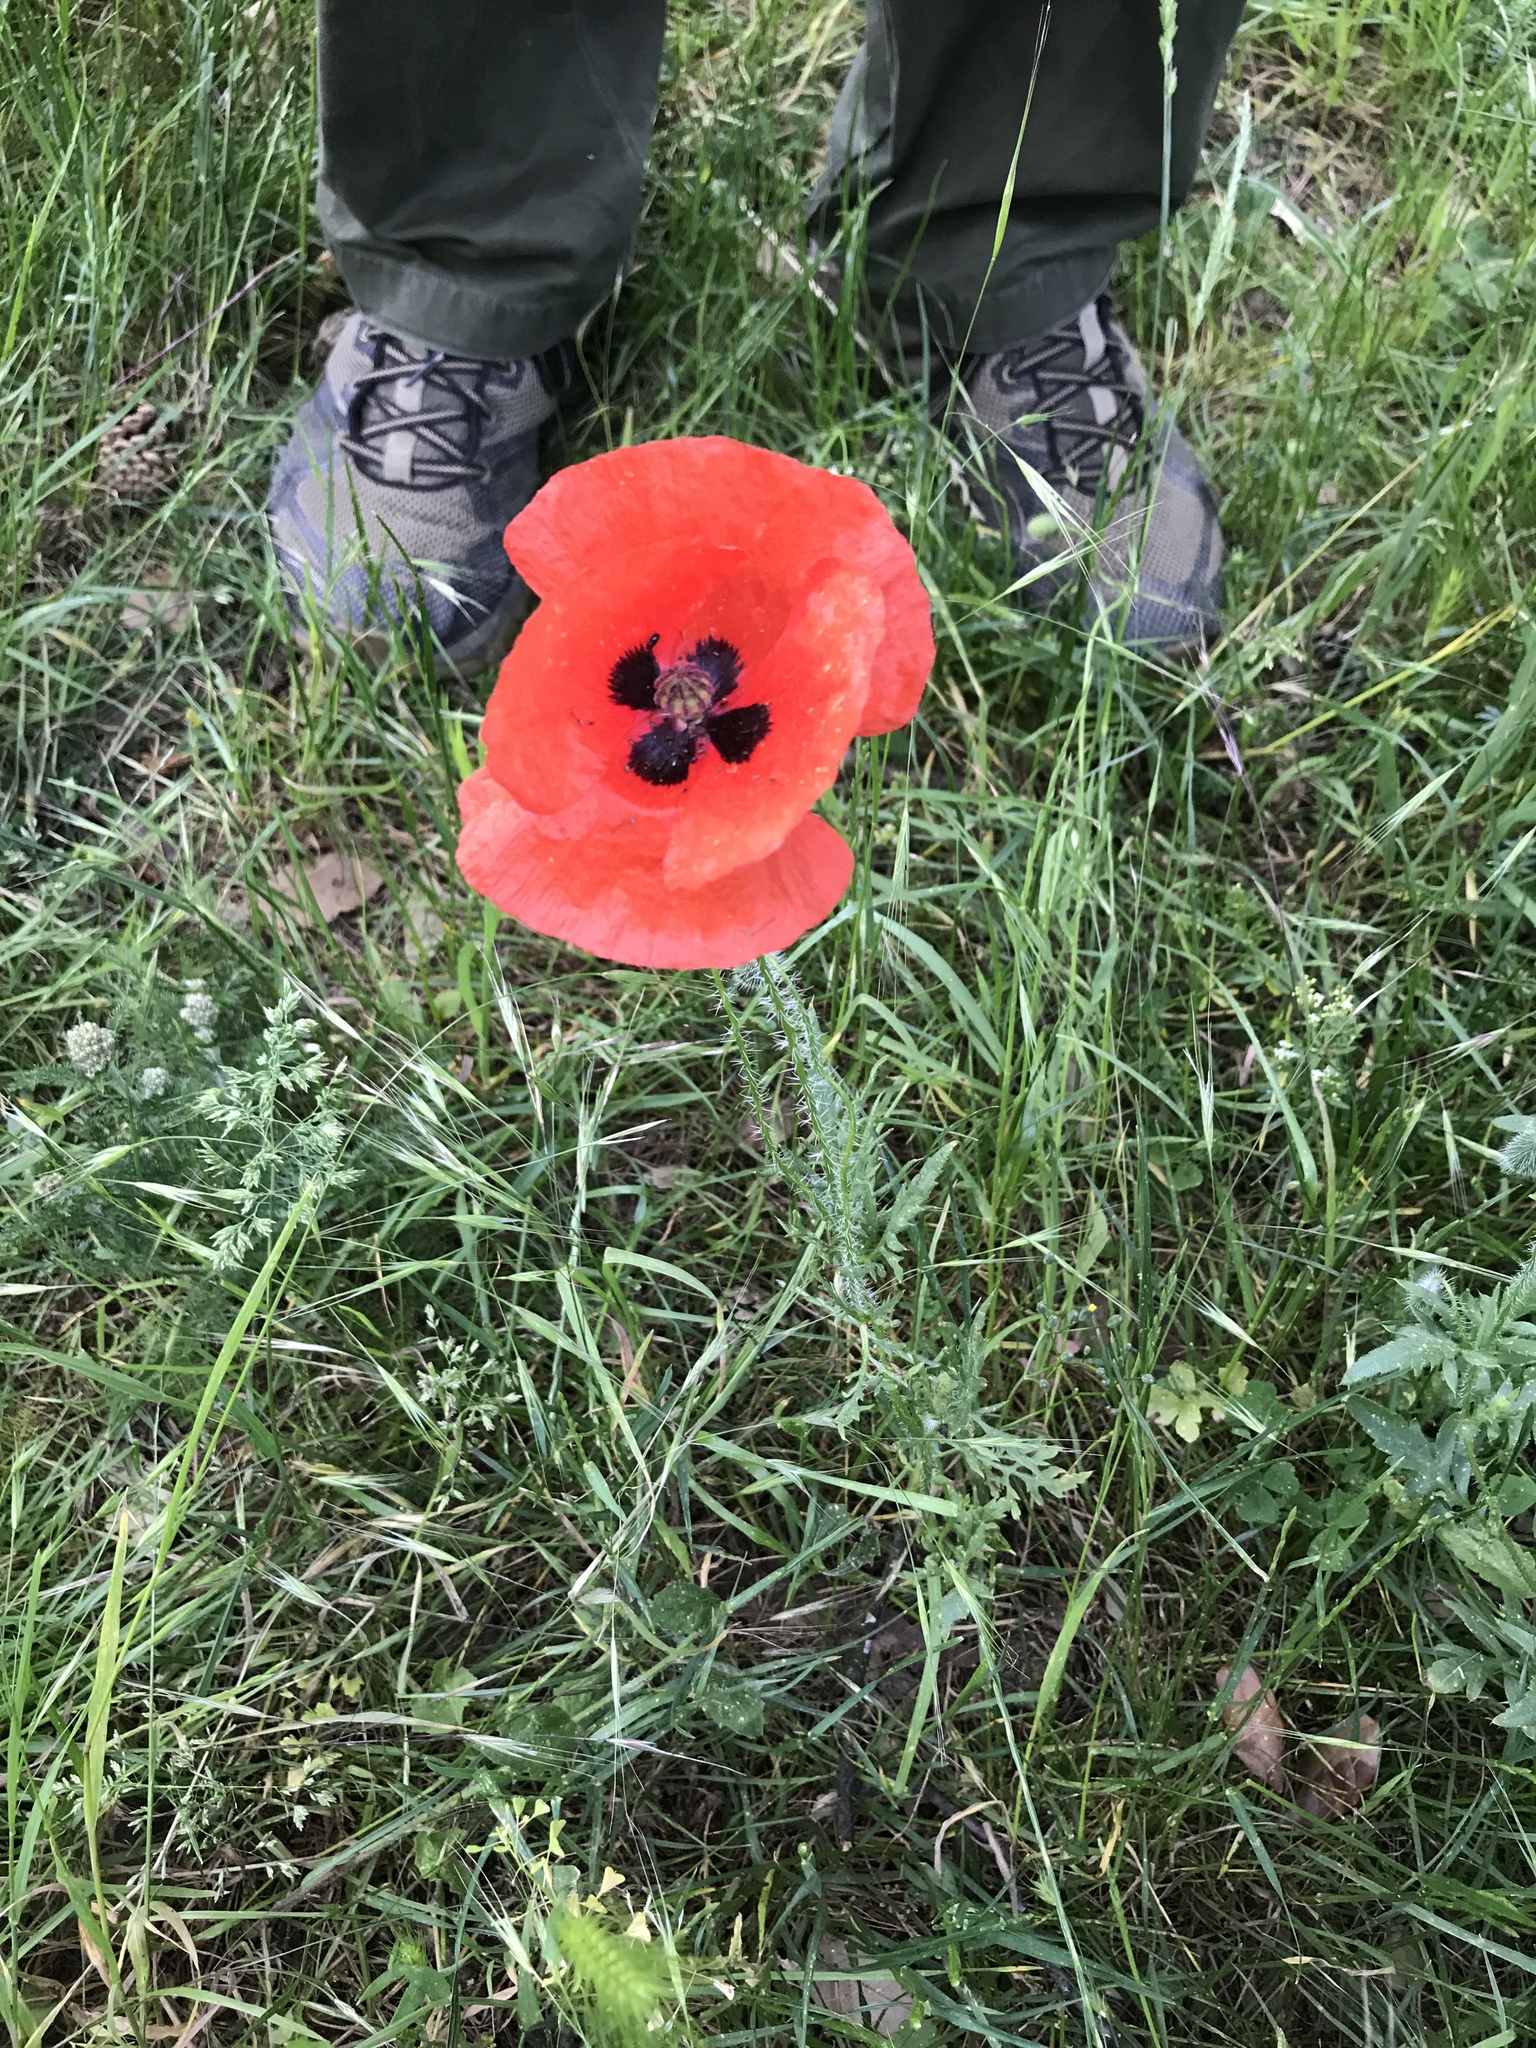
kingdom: Plantae
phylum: Tracheophyta
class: Magnoliopsida
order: Ranunculales
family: Papaveraceae
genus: Papaver
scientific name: Papaver rhoeas
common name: Corn poppy
